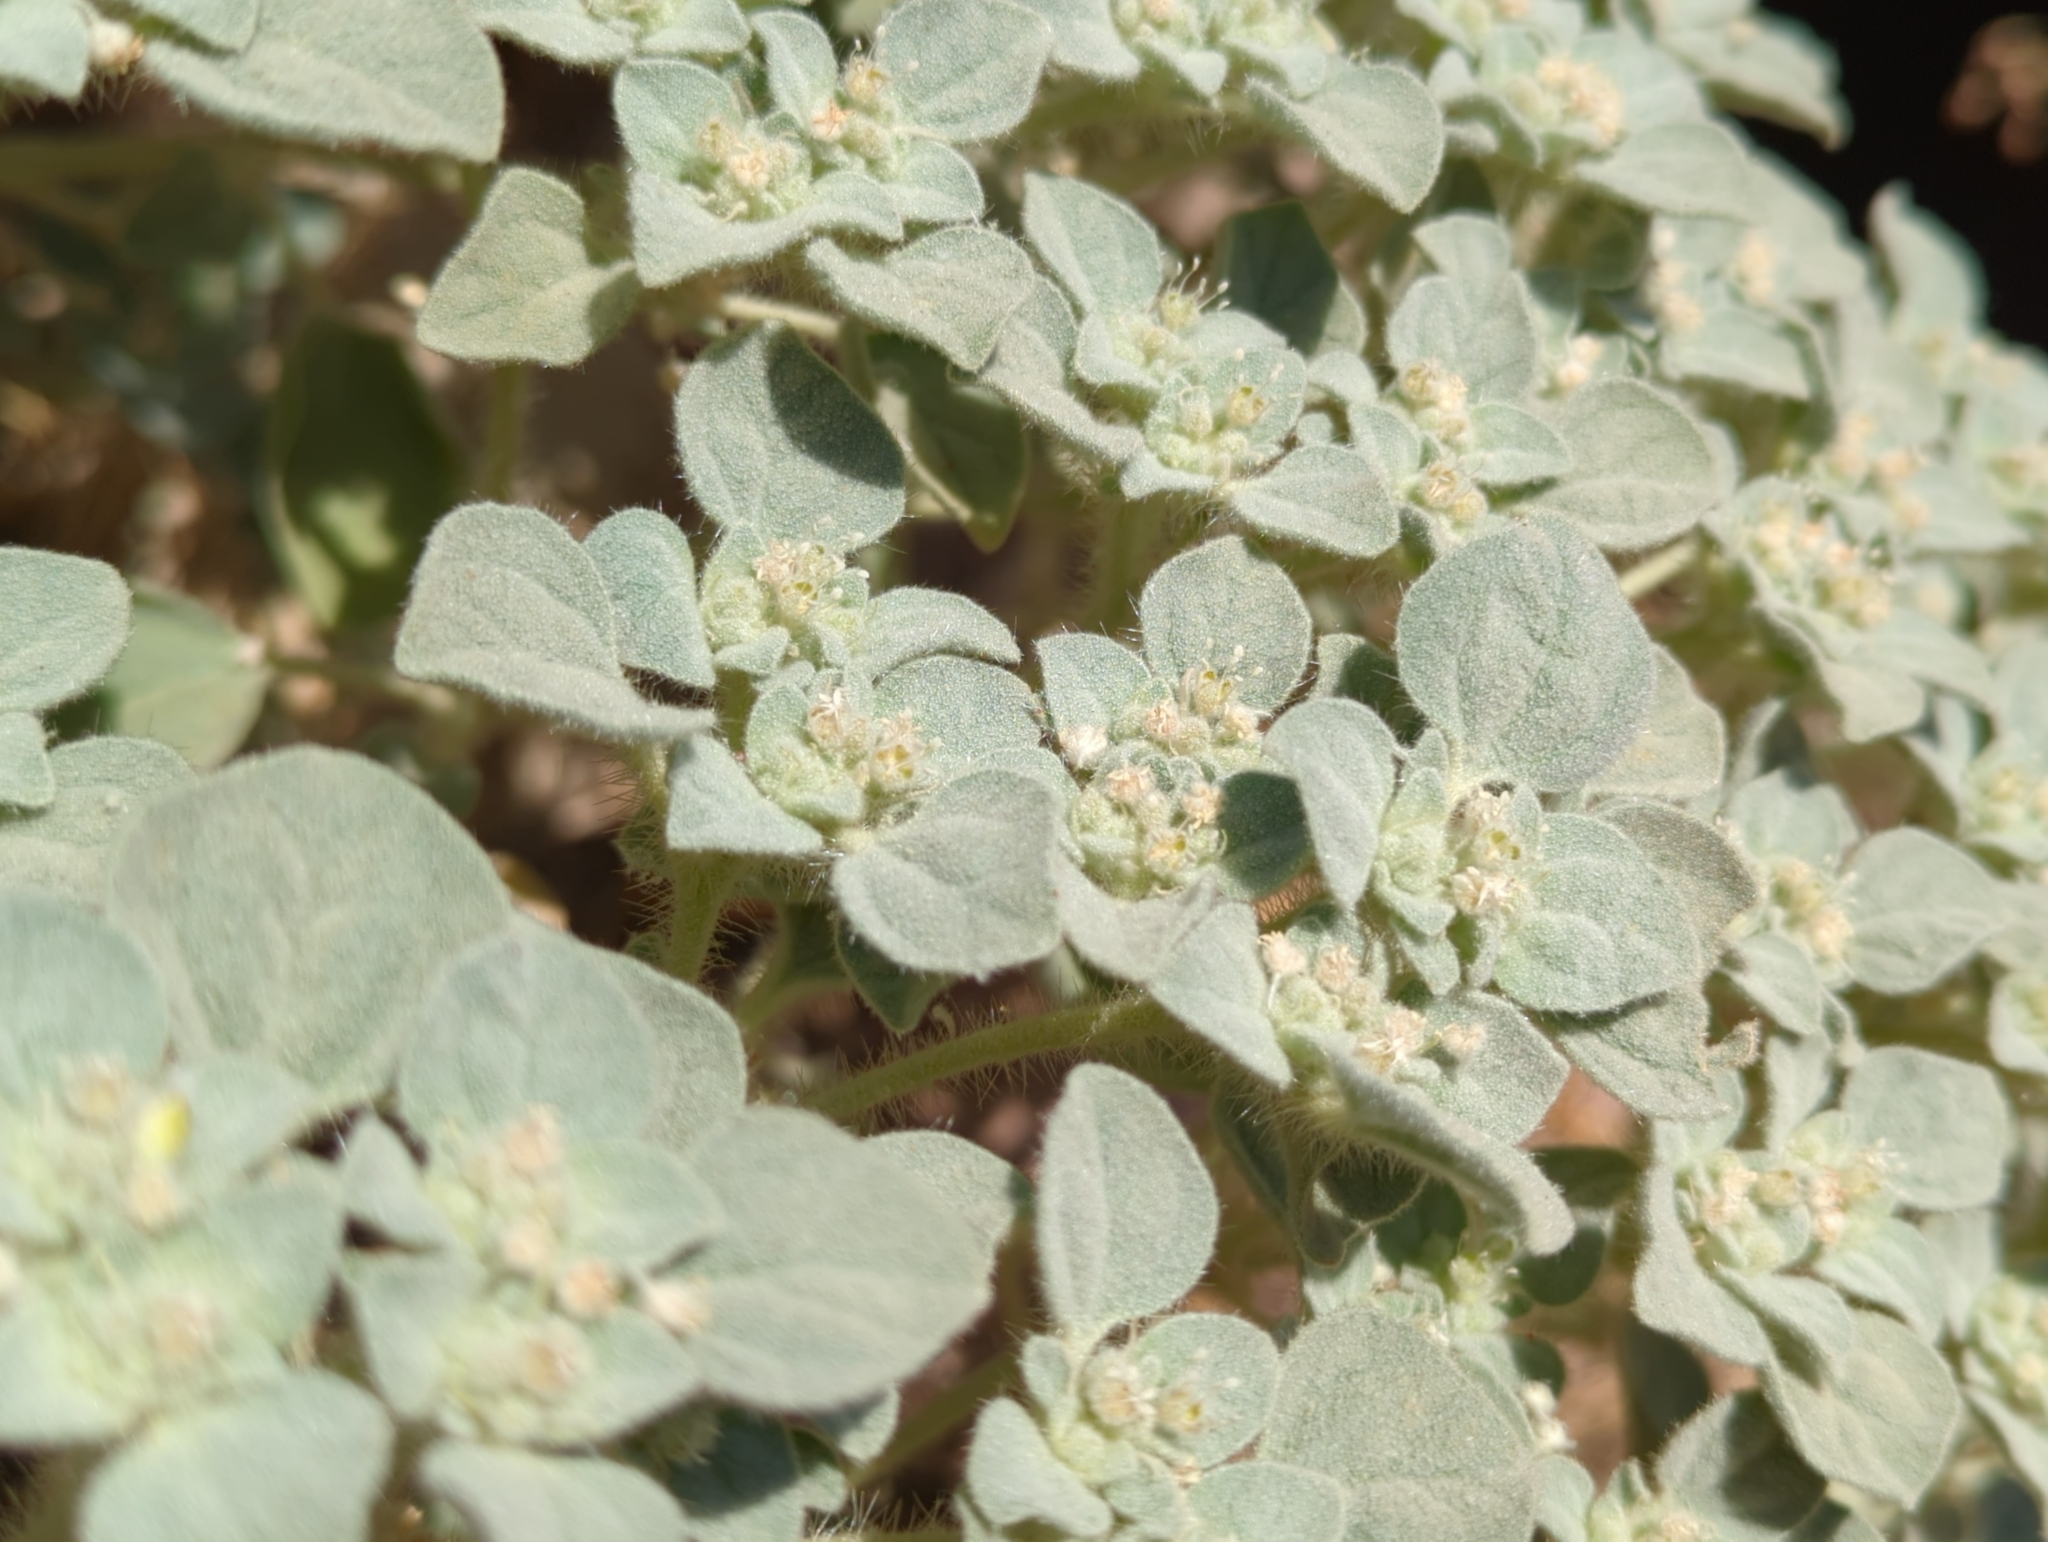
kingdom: Plantae
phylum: Tracheophyta
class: Magnoliopsida
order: Malpighiales
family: Euphorbiaceae
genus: Croton
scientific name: Croton setiger
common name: Dove weed
